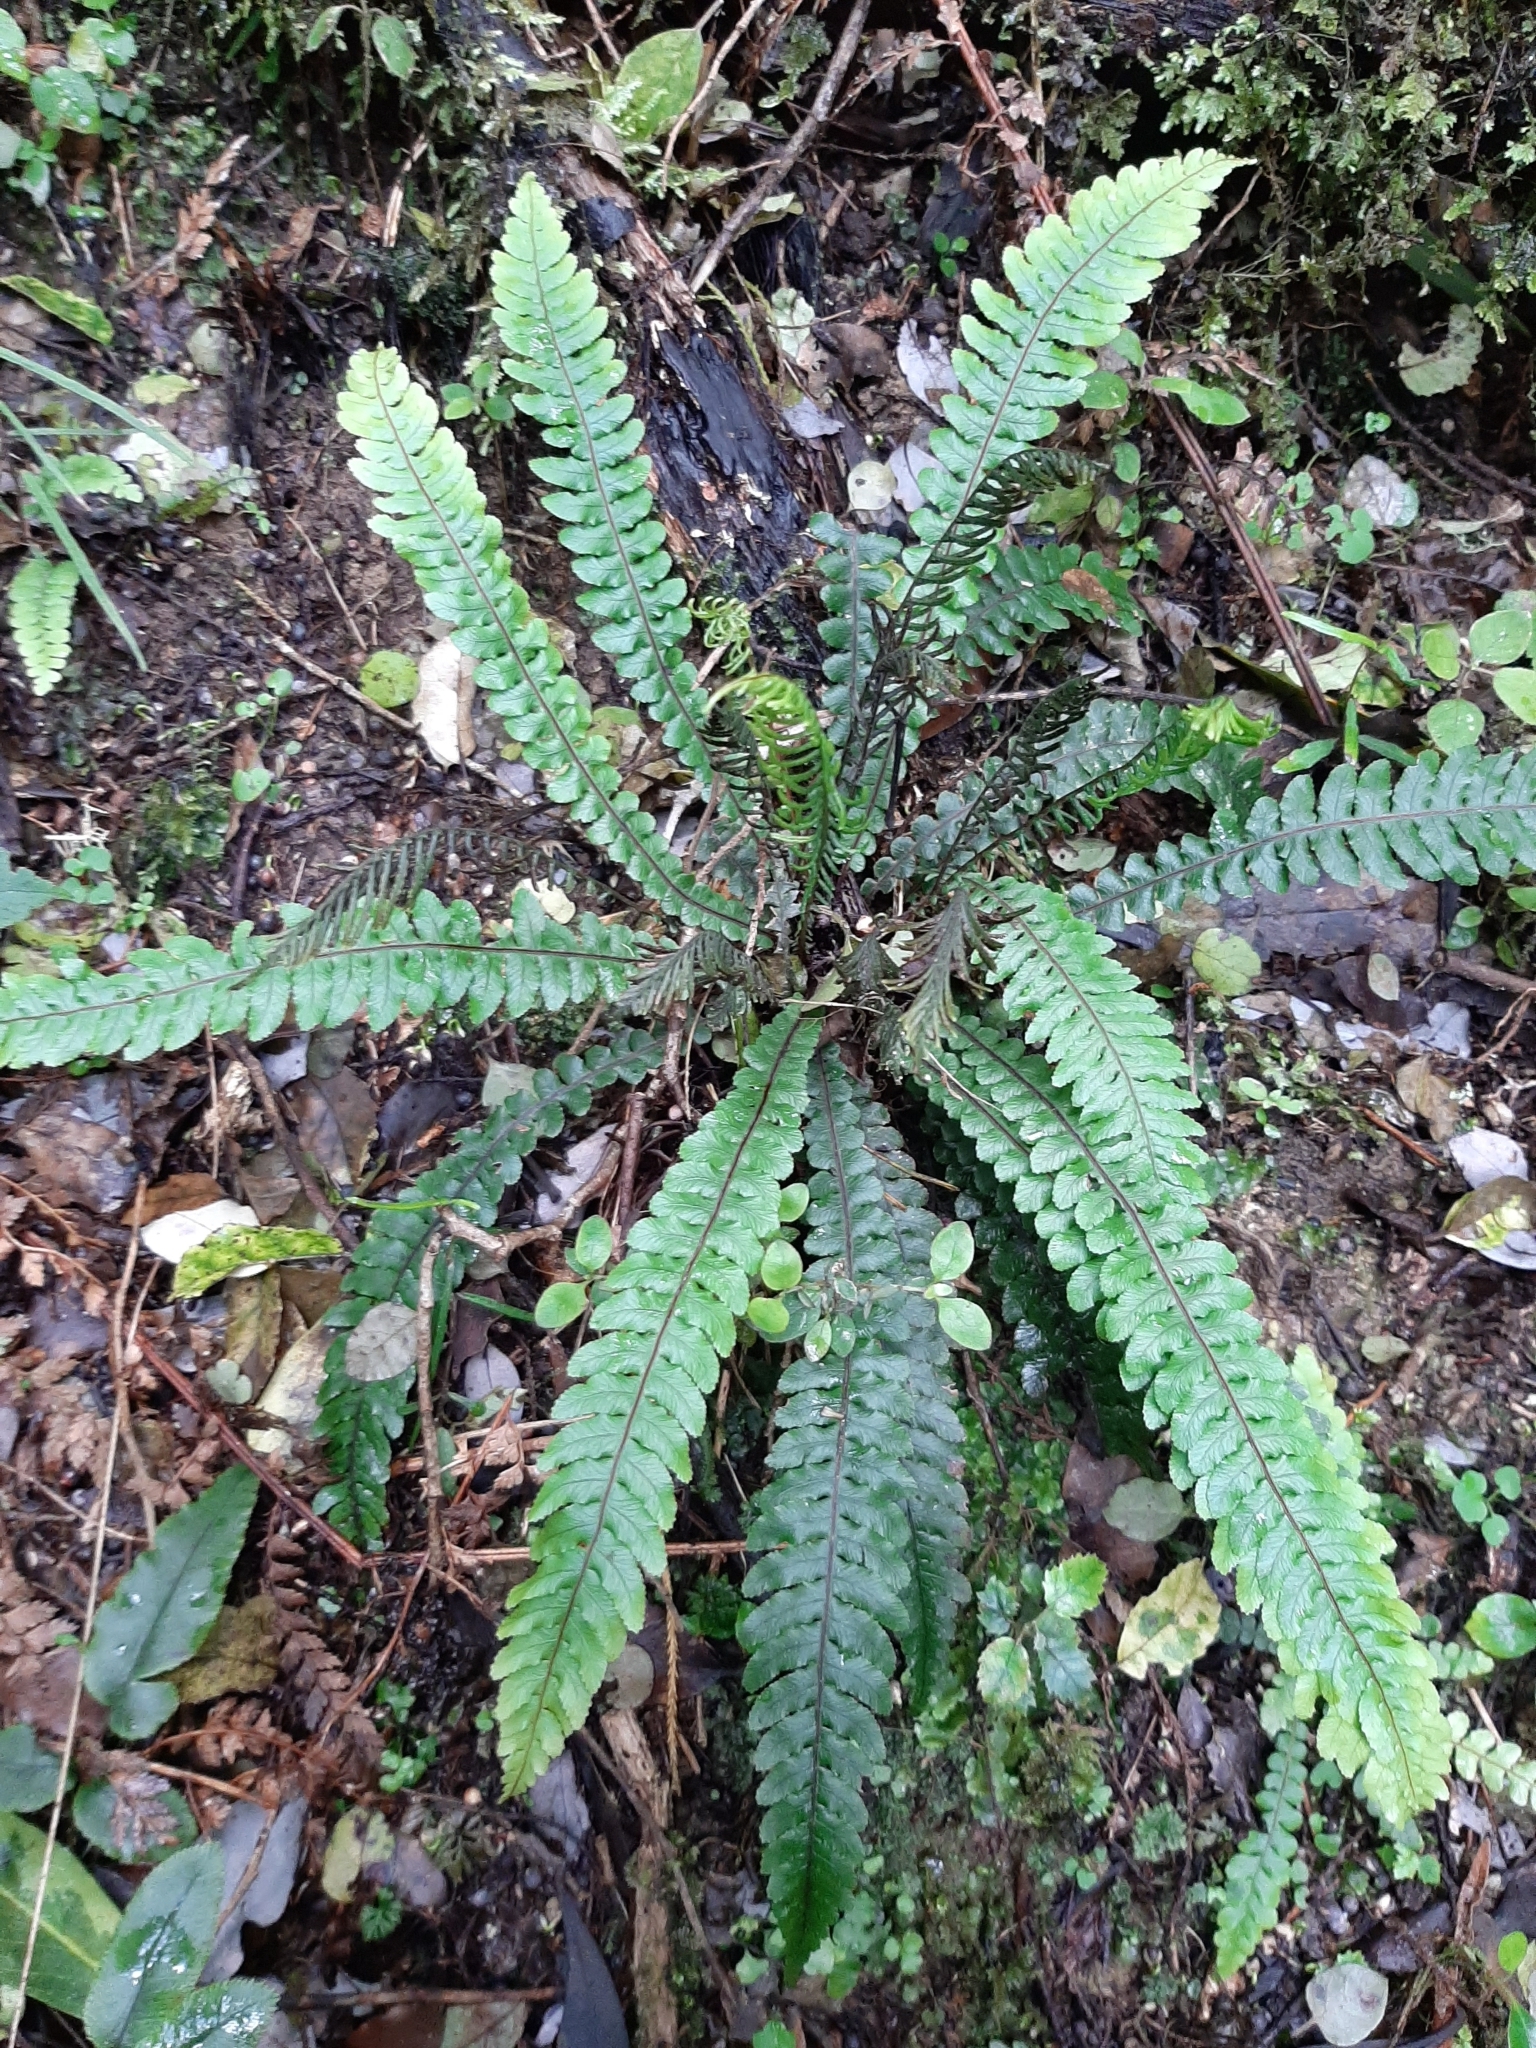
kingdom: Plantae
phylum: Tracheophyta
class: Polypodiopsida
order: Polypodiales
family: Blechnaceae
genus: Austroblechnum
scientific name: Austroblechnum lanceolatum
